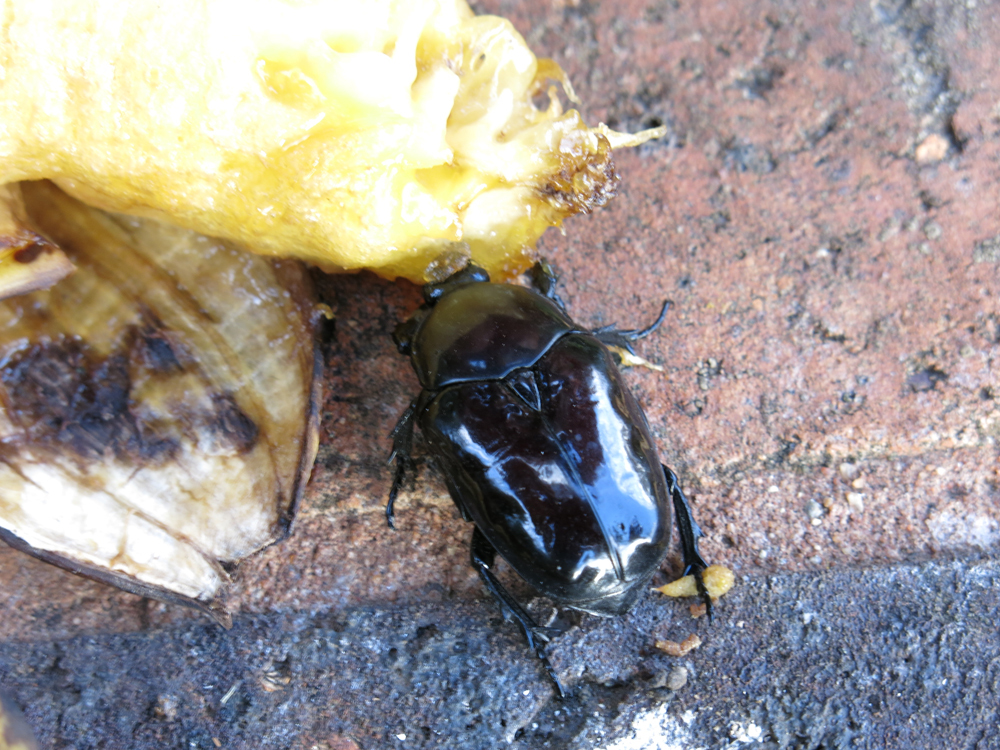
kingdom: Animalia
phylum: Arthropoda
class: Insecta
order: Coleoptera
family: Scarabaeidae
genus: Diplognatha
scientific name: Diplognatha gagates
